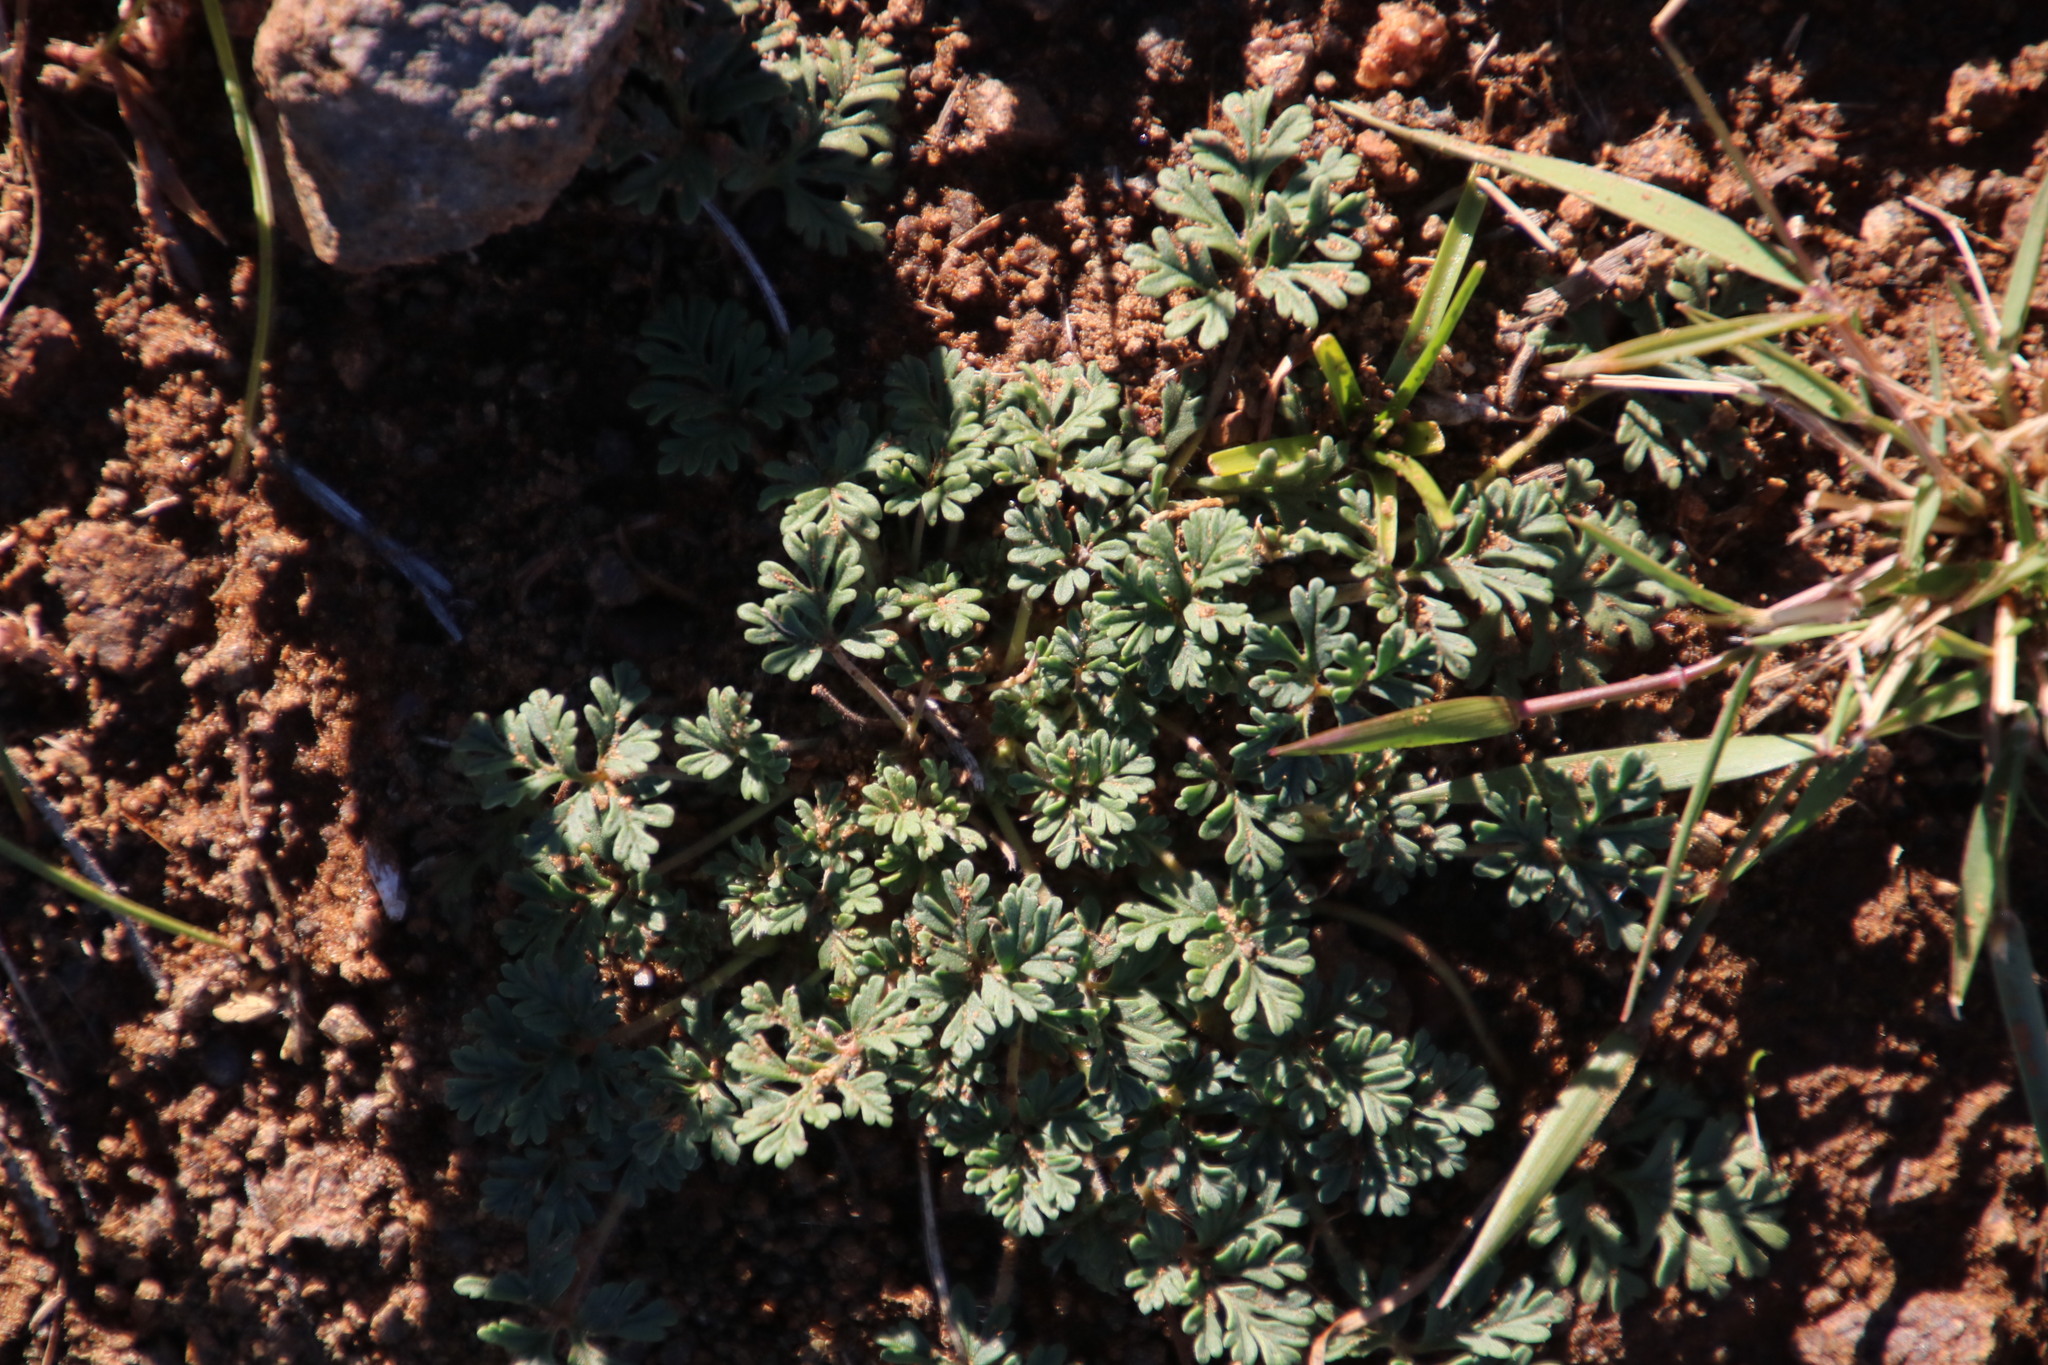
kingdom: Plantae
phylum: Tracheophyta
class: Magnoliopsida
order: Geraniales
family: Geraniaceae
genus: Pelargonium
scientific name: Pelargonium minimum
